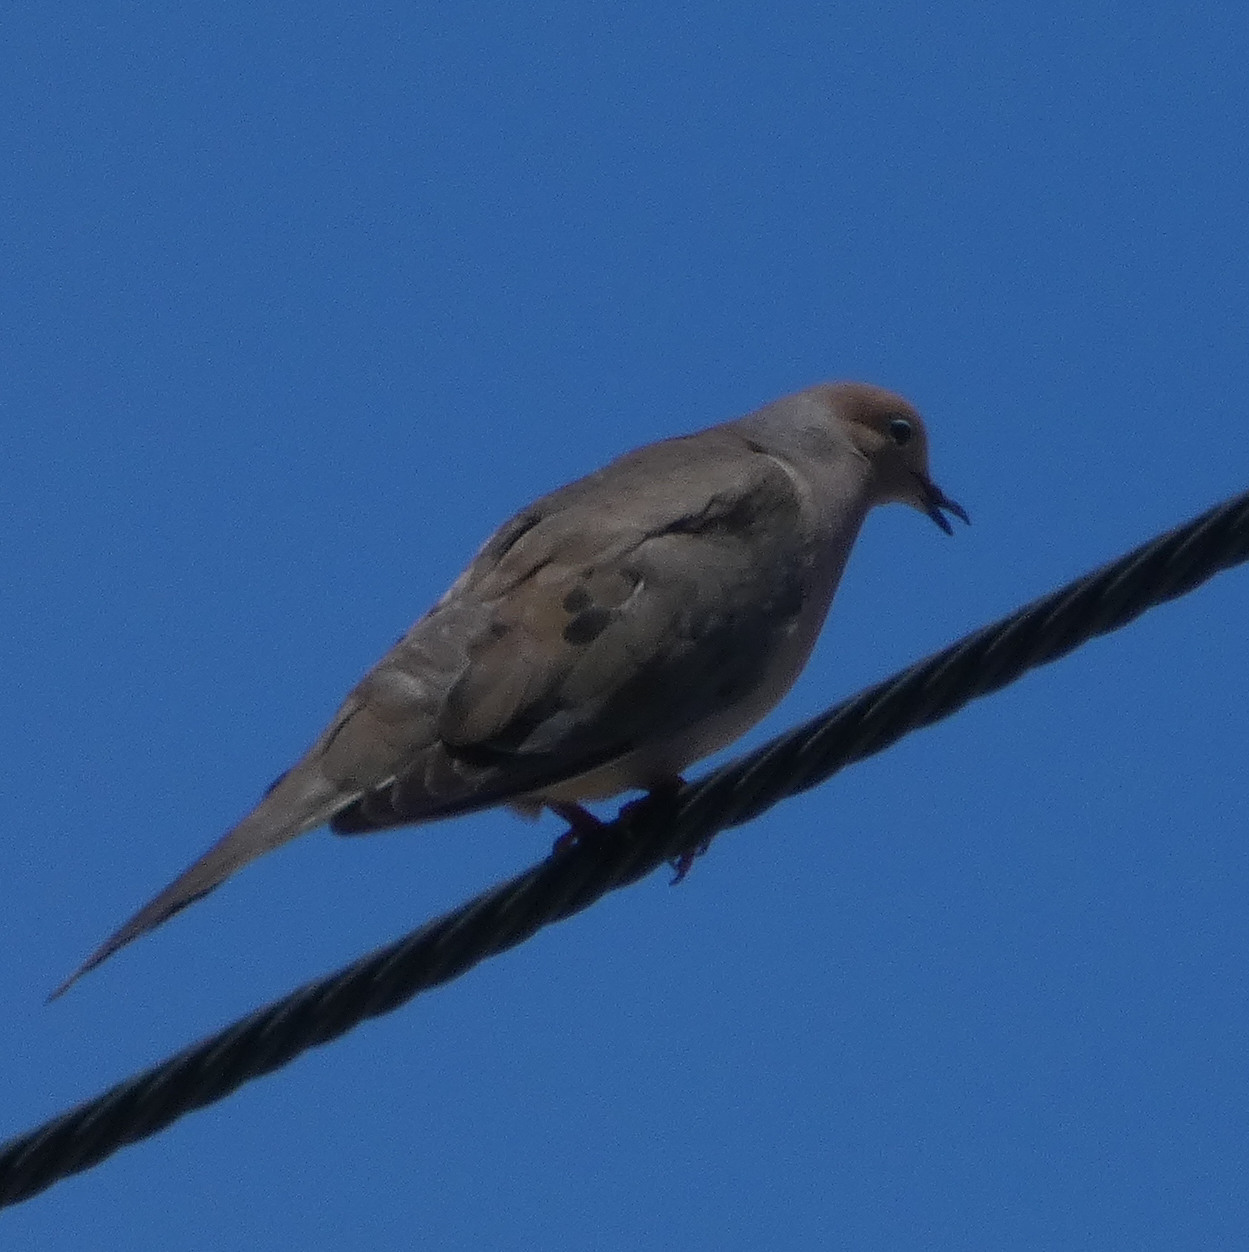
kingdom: Animalia
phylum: Chordata
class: Aves
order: Columbiformes
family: Columbidae
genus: Zenaida
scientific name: Zenaida macroura
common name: Mourning dove
